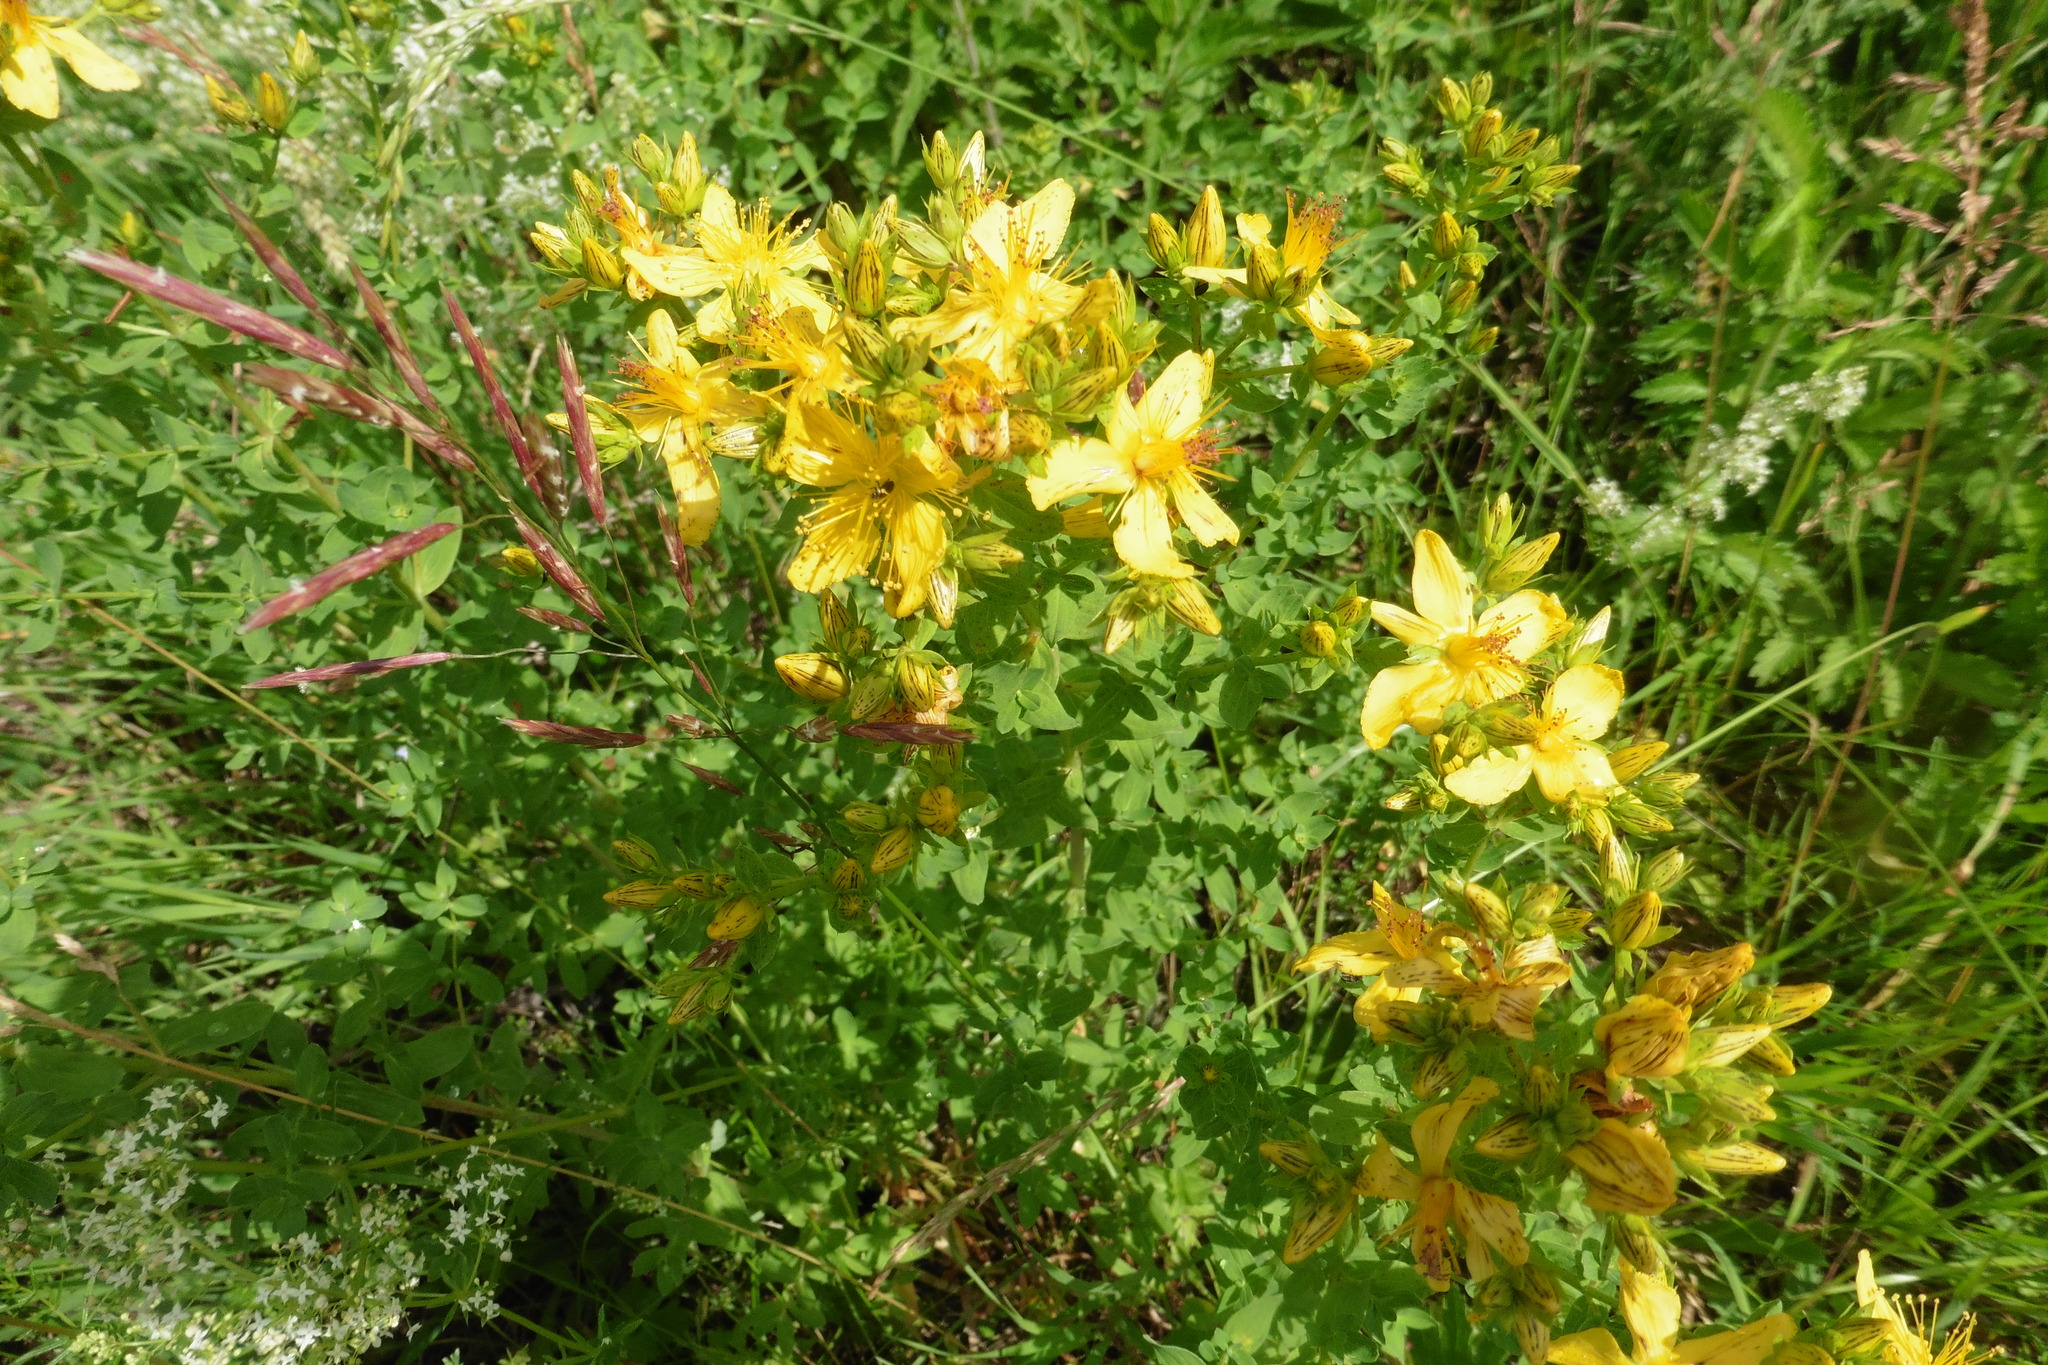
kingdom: Plantae
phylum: Tracheophyta
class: Magnoliopsida
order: Malpighiales
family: Hypericaceae
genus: Hypericum
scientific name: Hypericum perforatum
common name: Common st. johnswort
